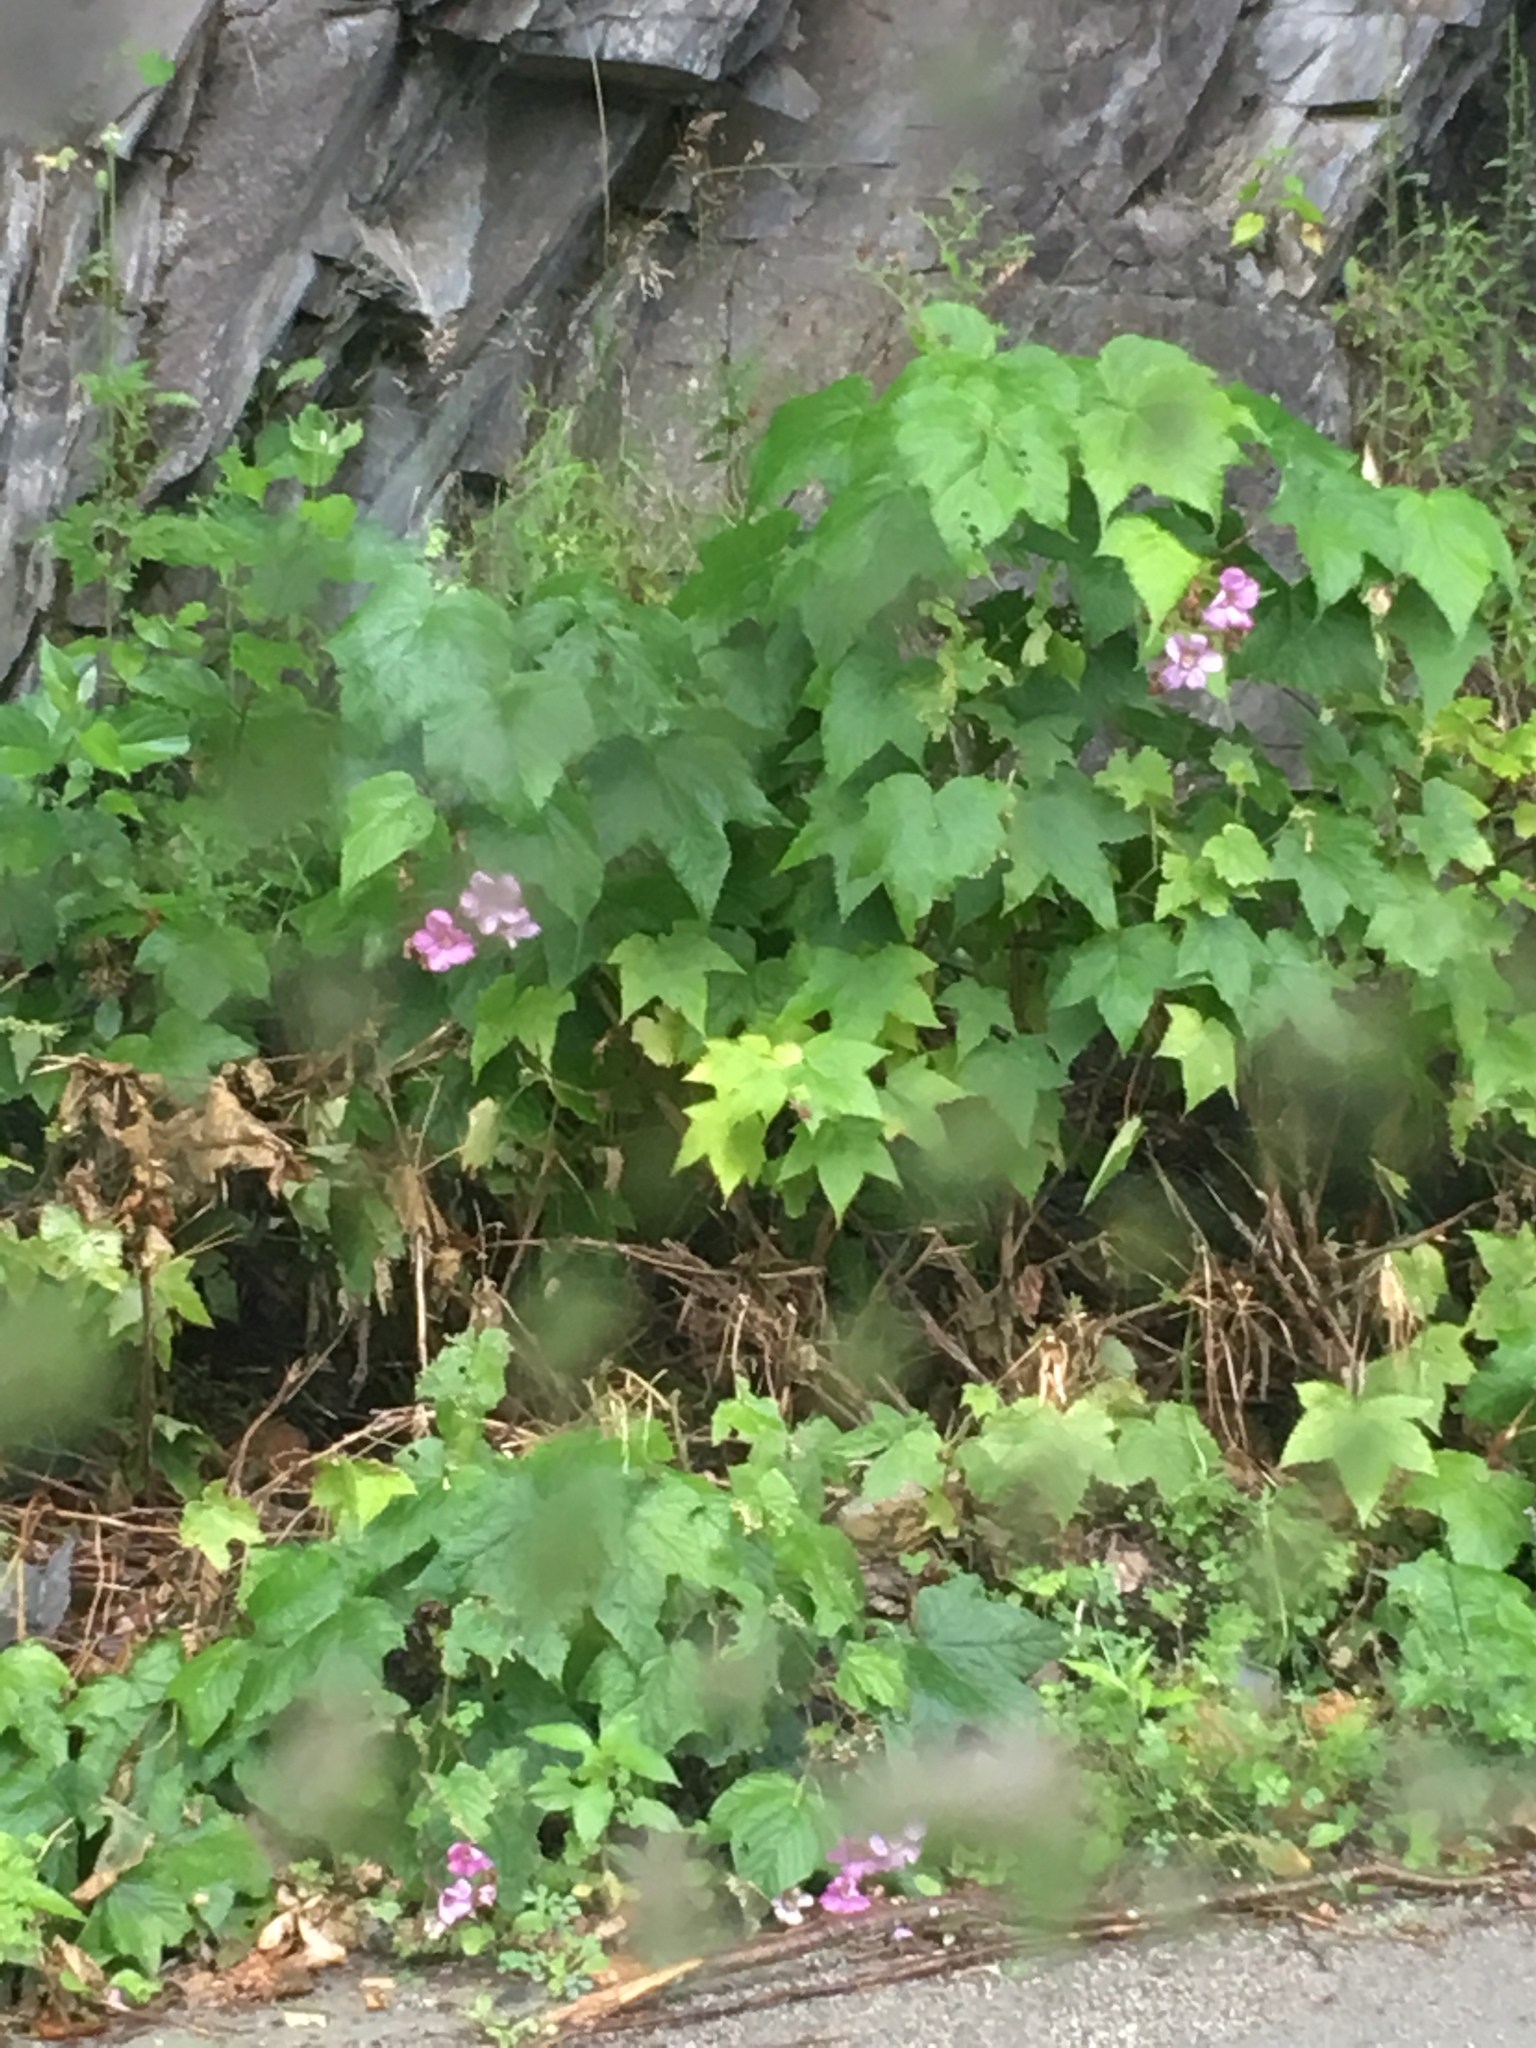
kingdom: Plantae
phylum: Tracheophyta
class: Magnoliopsida
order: Rosales
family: Rosaceae
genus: Rubus
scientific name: Rubus odoratus
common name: Purple-flowered raspberry
